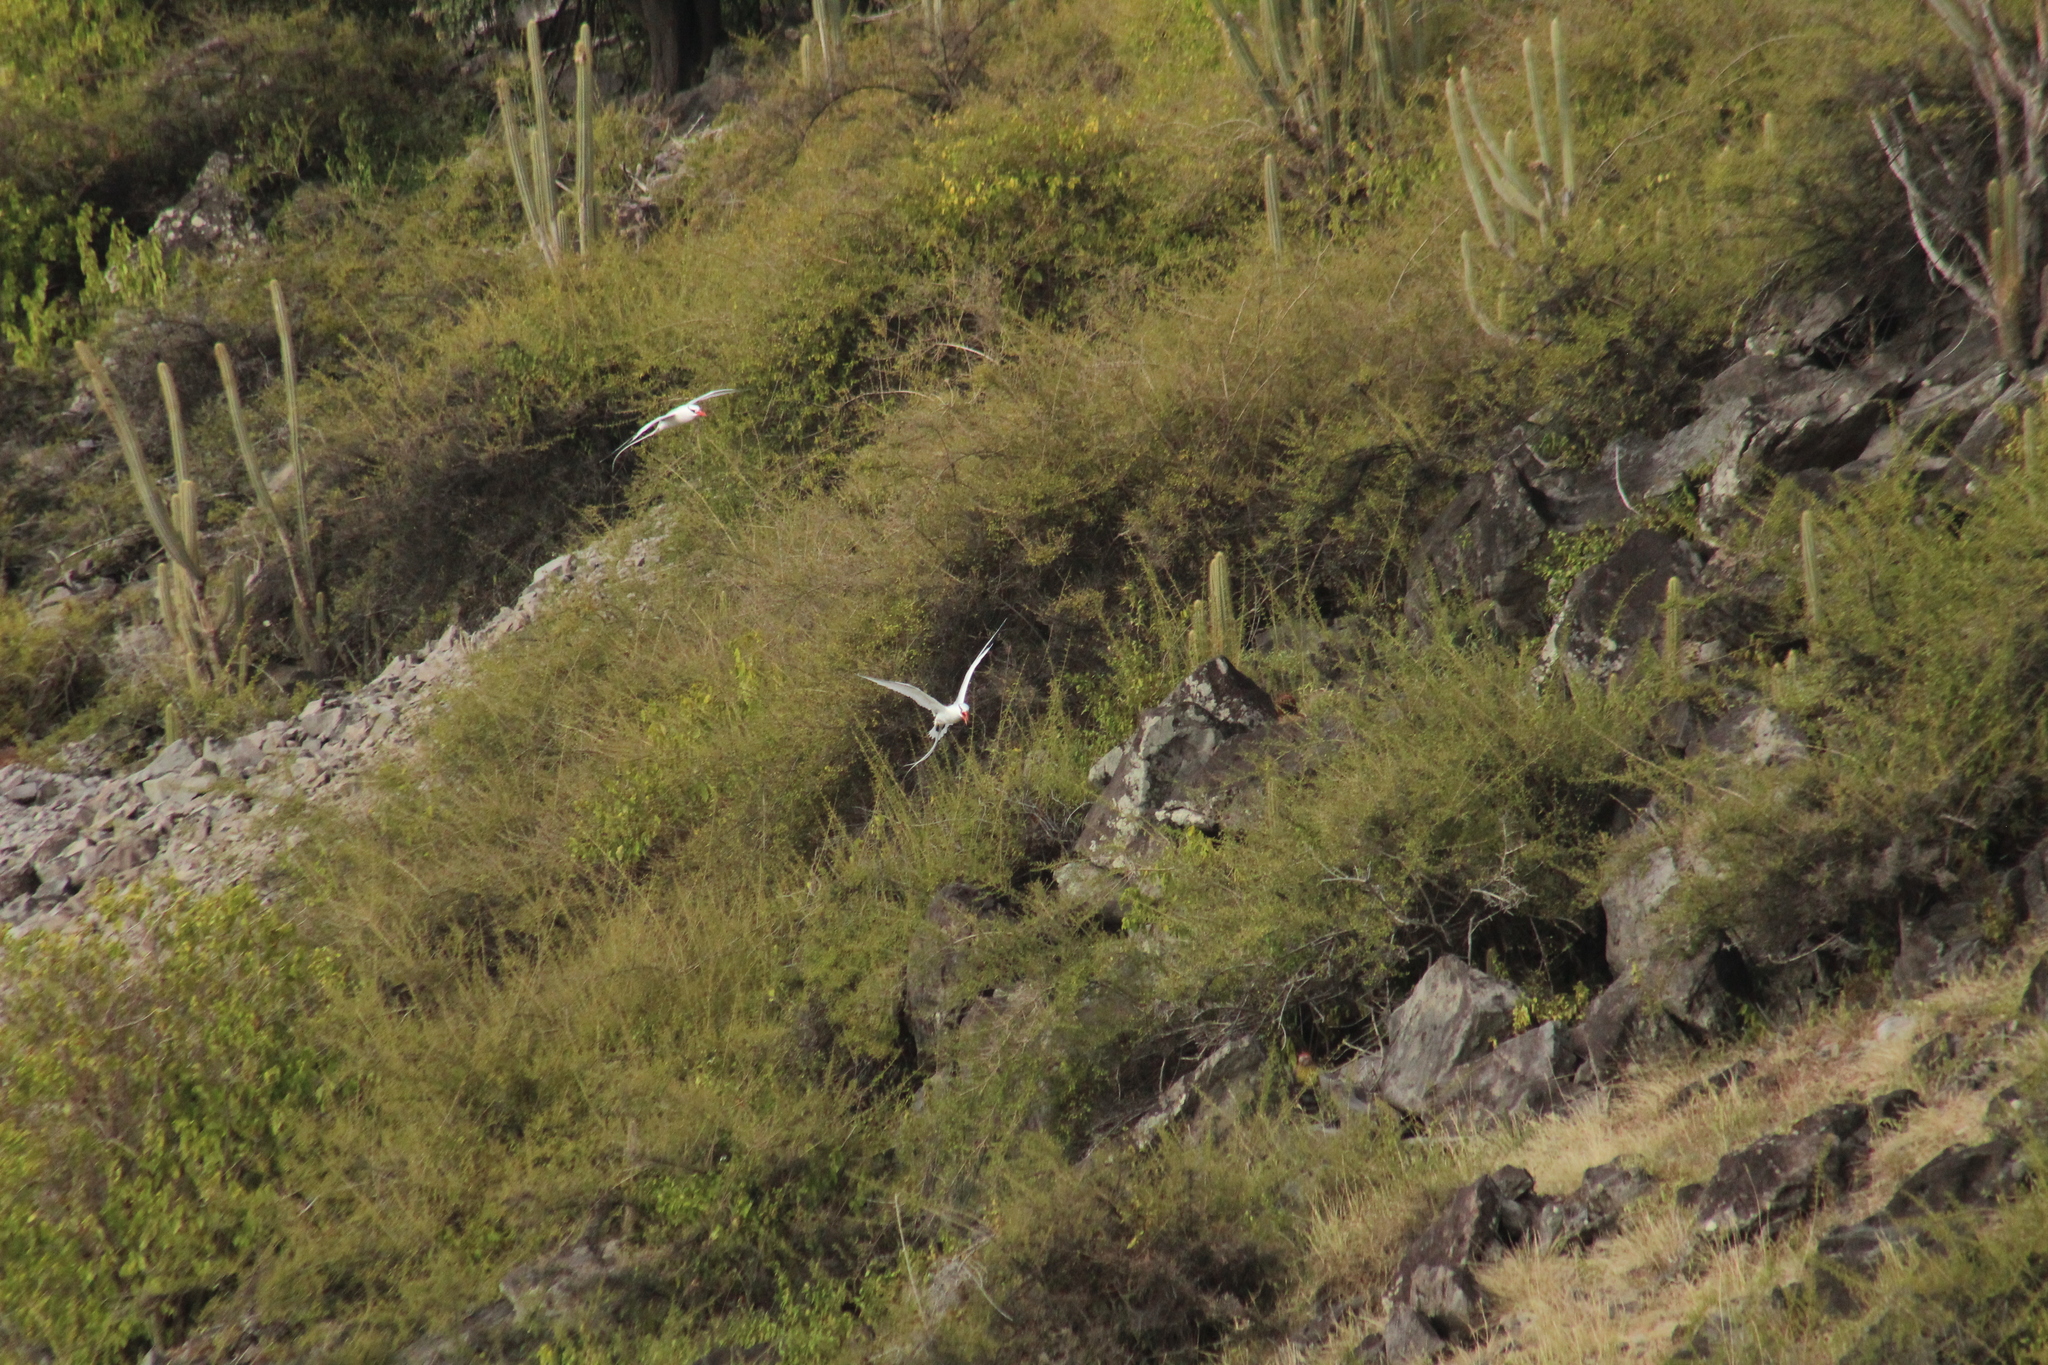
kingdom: Animalia
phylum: Chordata
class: Aves
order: Phaethontiformes
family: Phaethontidae
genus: Phaethon
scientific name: Phaethon aethereus
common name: Red-billed tropicbird
